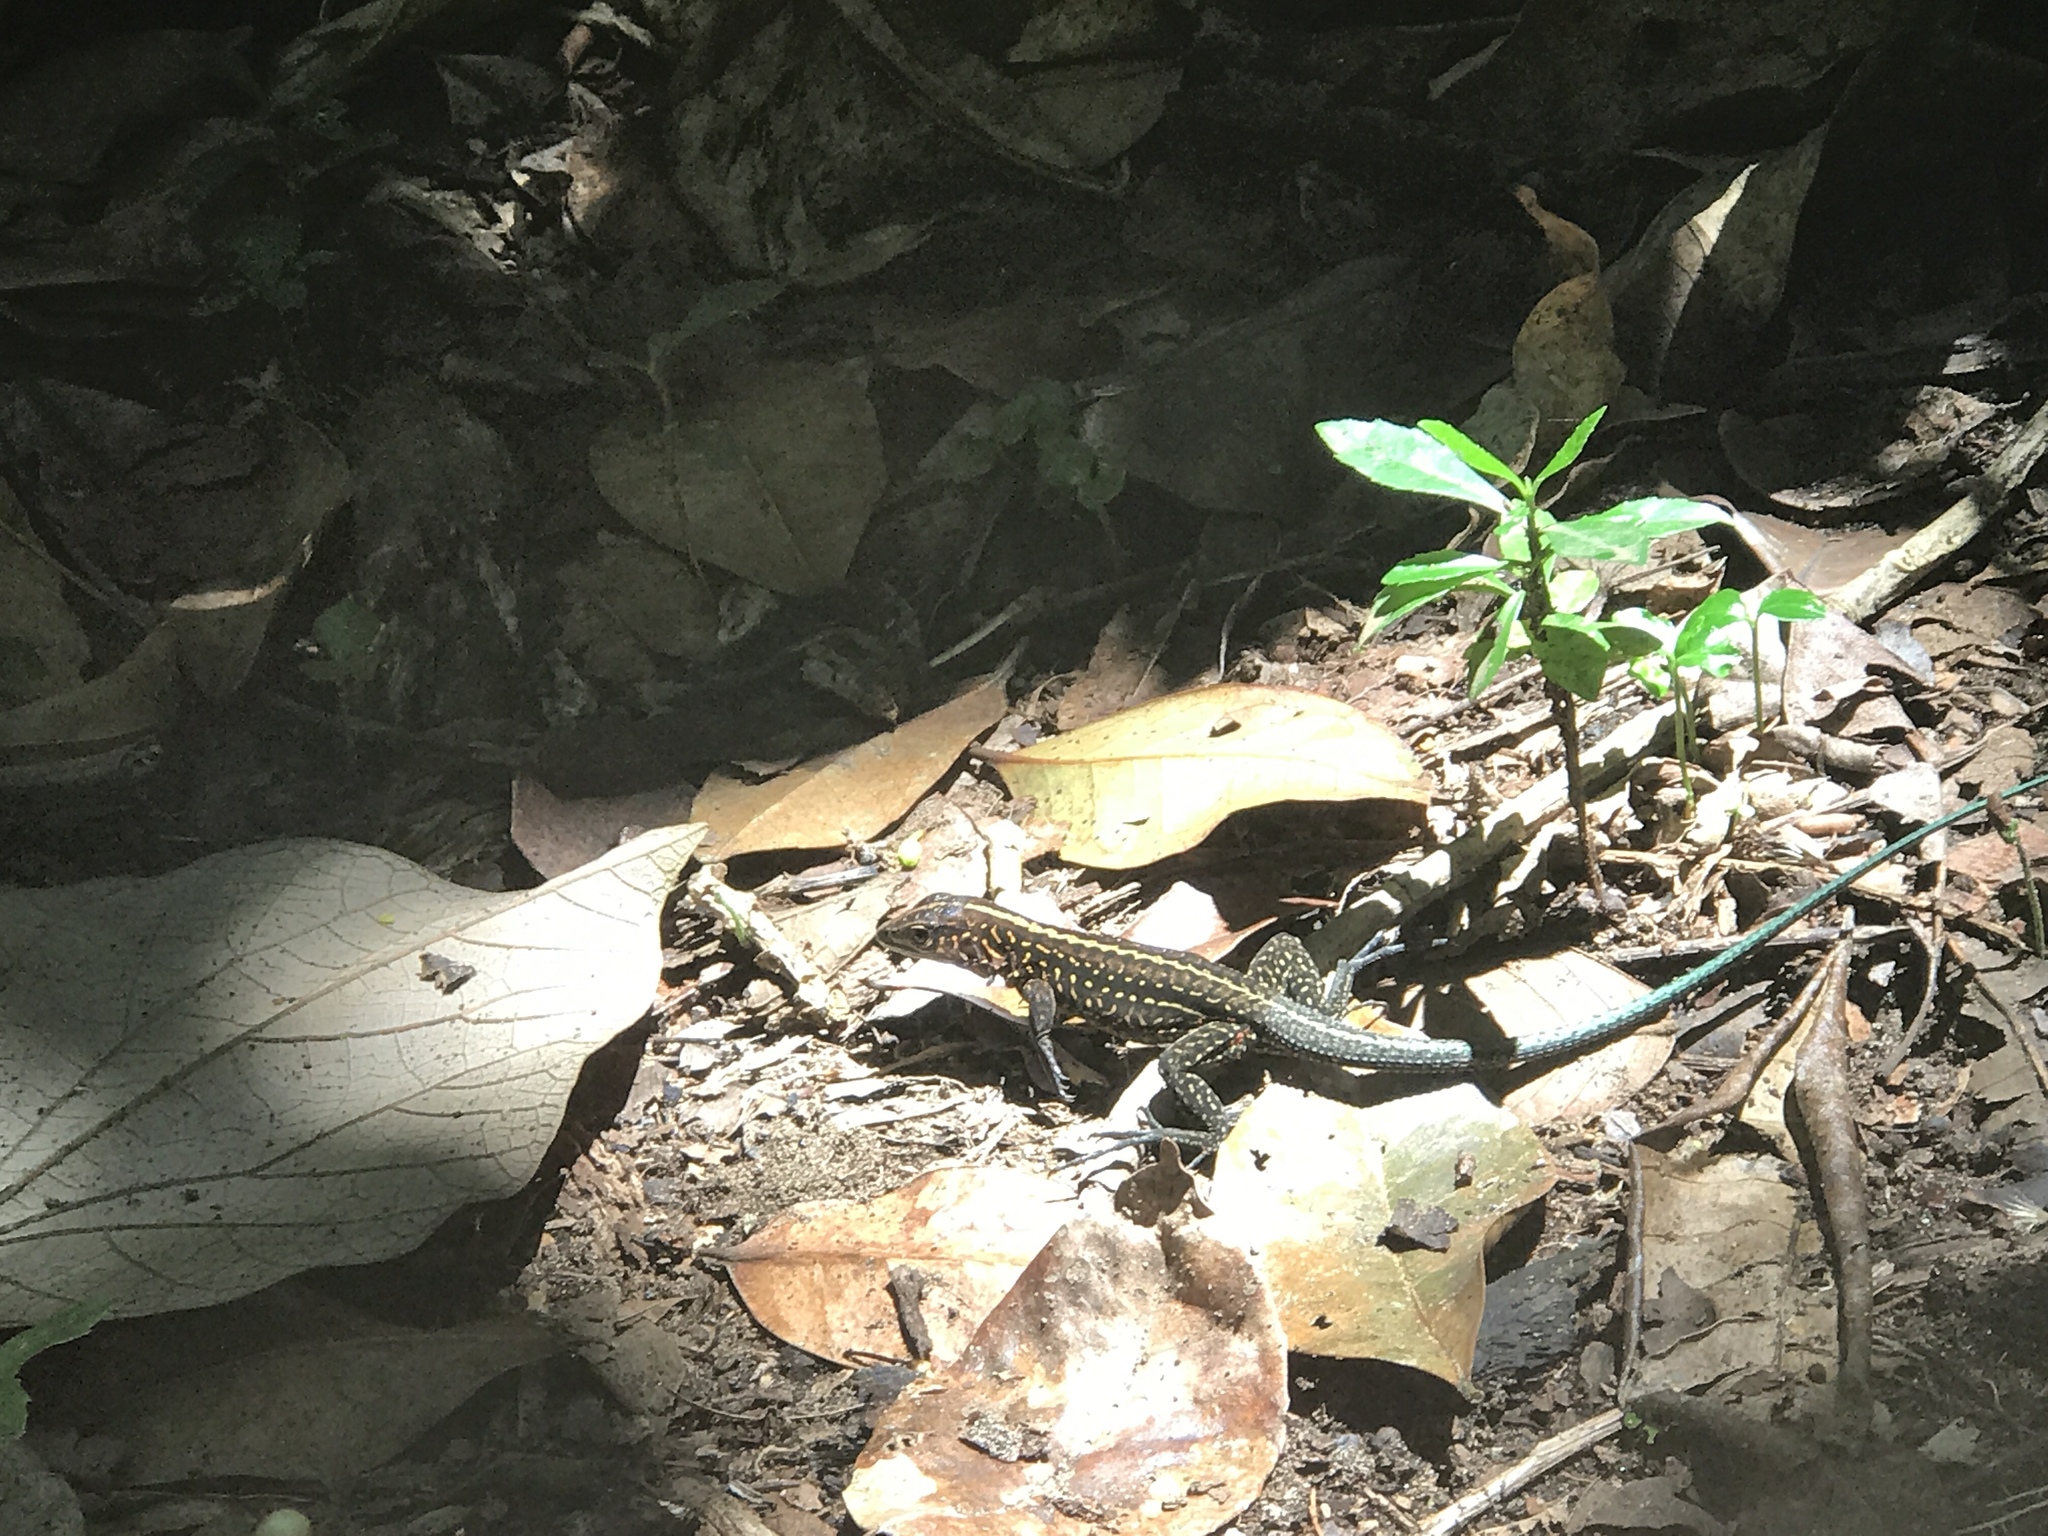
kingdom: Animalia
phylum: Chordata
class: Squamata
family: Teiidae
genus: Holcosus
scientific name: Holcosus festivus
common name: Middle american ameiva
